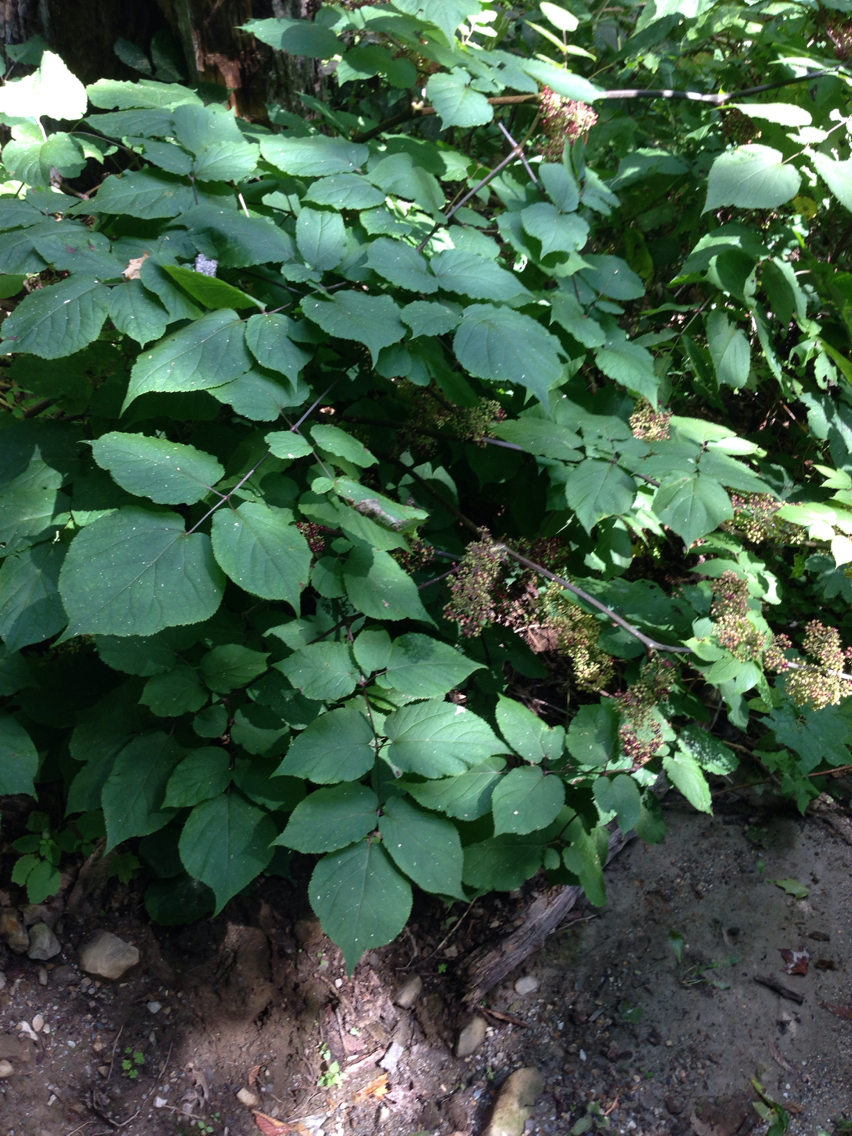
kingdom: Plantae
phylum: Tracheophyta
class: Magnoliopsida
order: Apiales
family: Araliaceae
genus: Aralia
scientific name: Aralia racemosa
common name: American-spikenard
